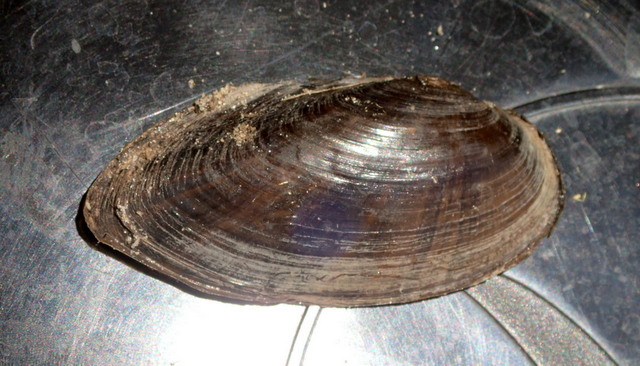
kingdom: Animalia
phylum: Mollusca
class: Bivalvia
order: Unionida
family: Unionidae
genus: Elliptio
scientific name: Elliptio jayensis
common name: Florida spike
